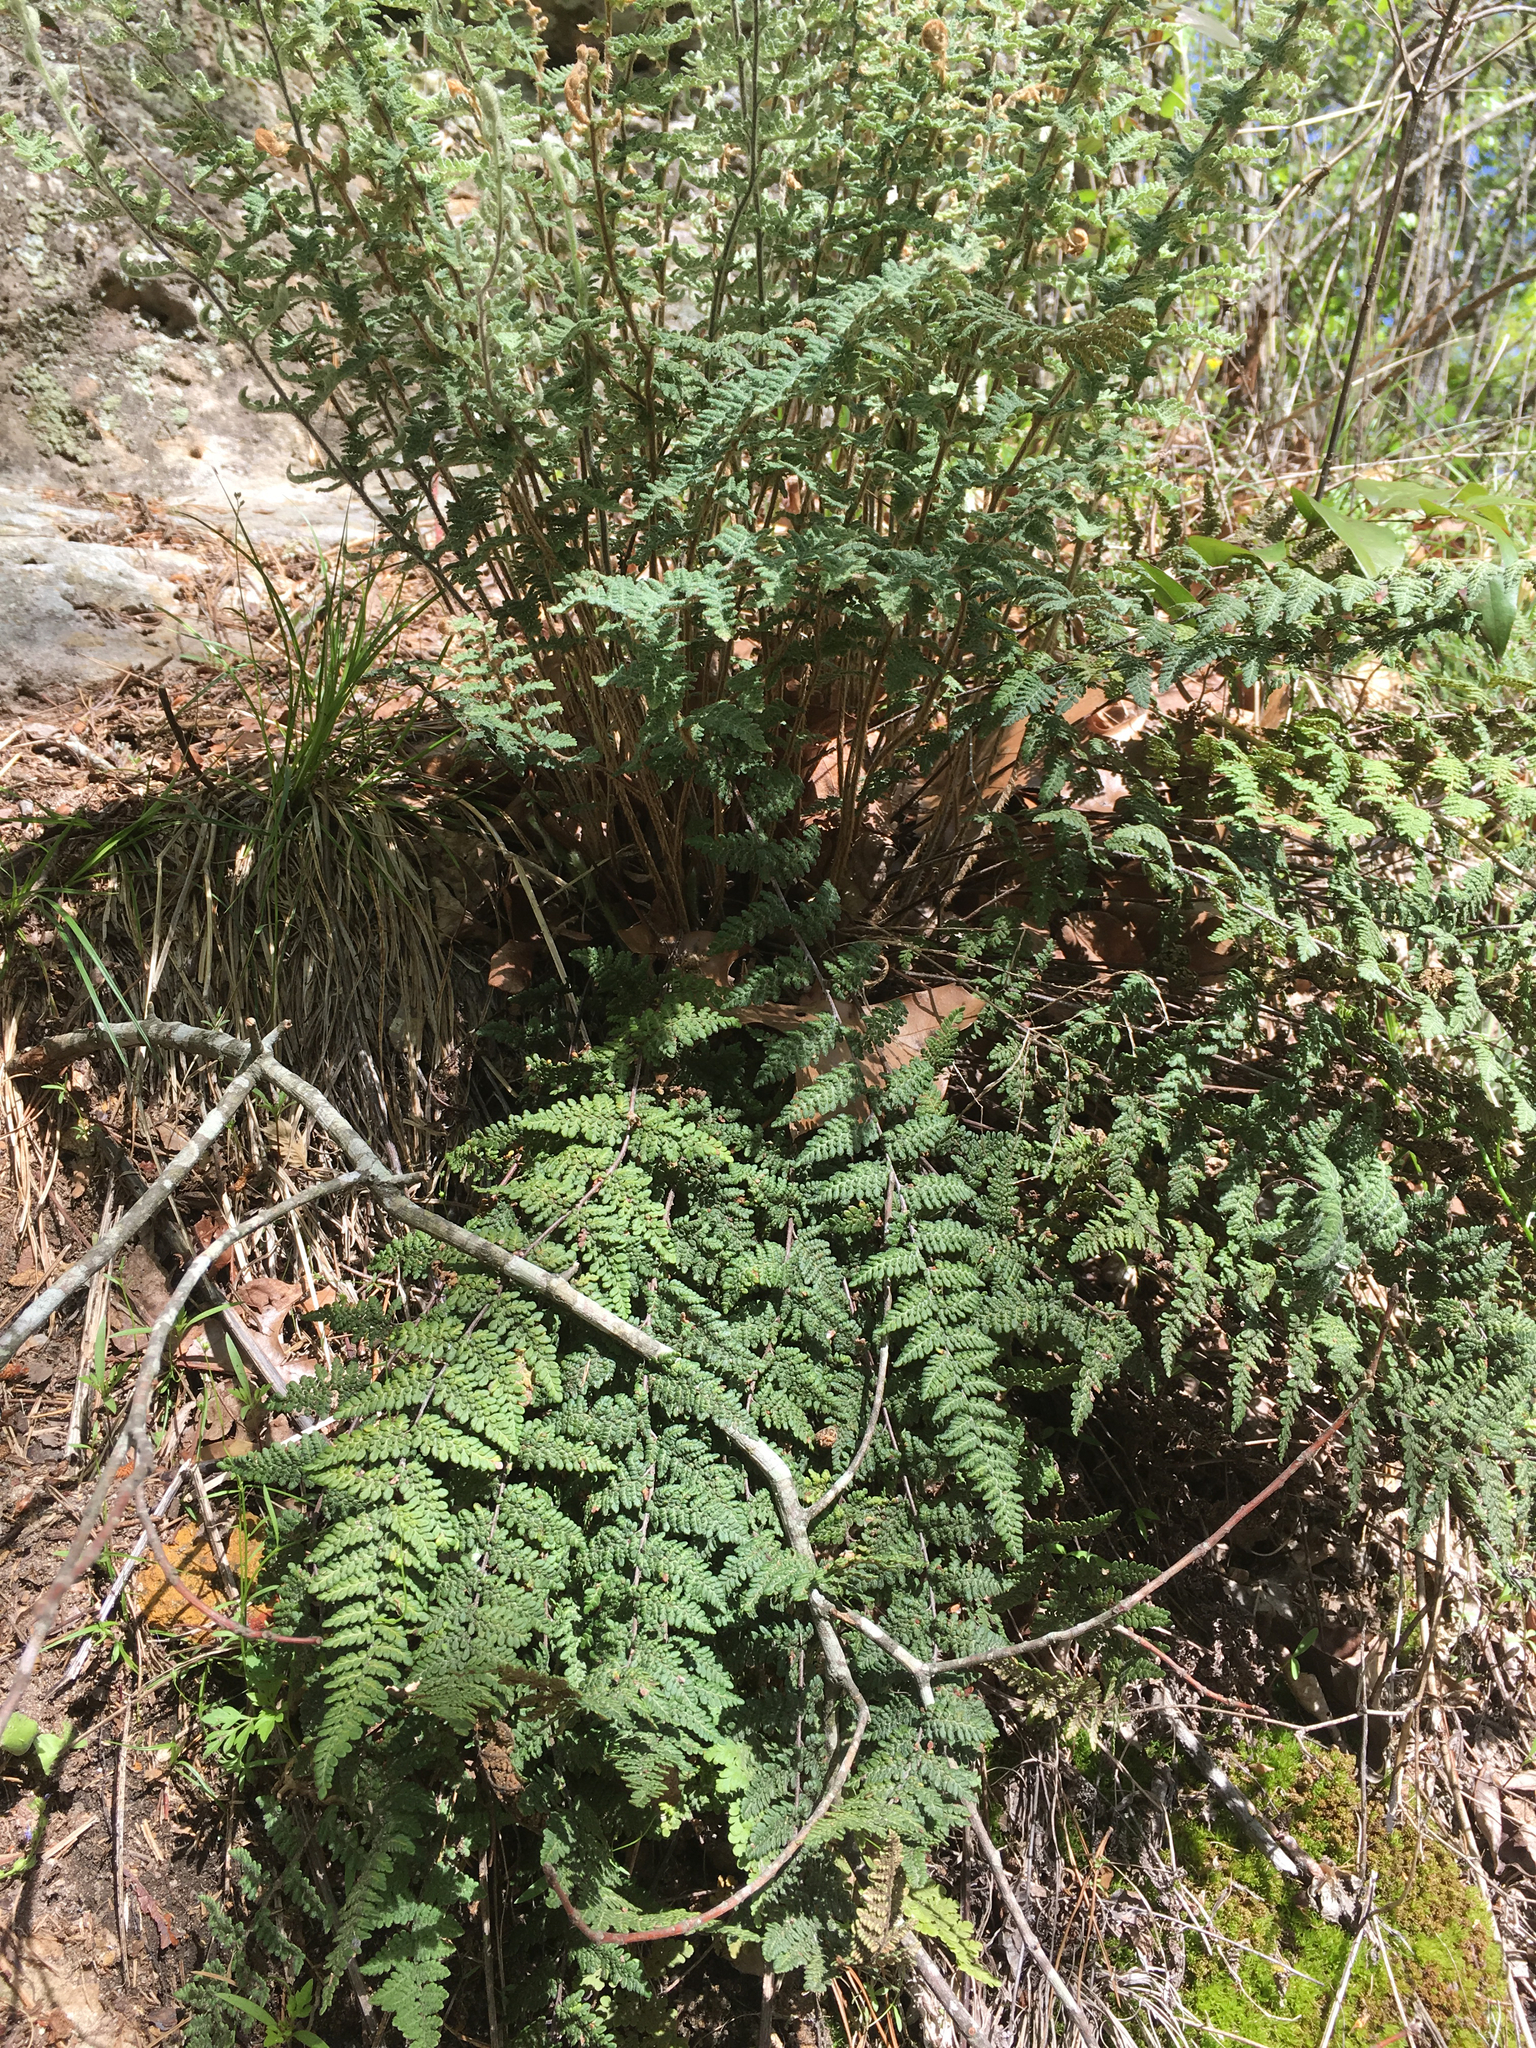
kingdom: Plantae
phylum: Tracheophyta
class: Polypodiopsida
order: Polypodiales
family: Pteridaceae
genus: Myriopteris
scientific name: Myriopteris tomentosa
